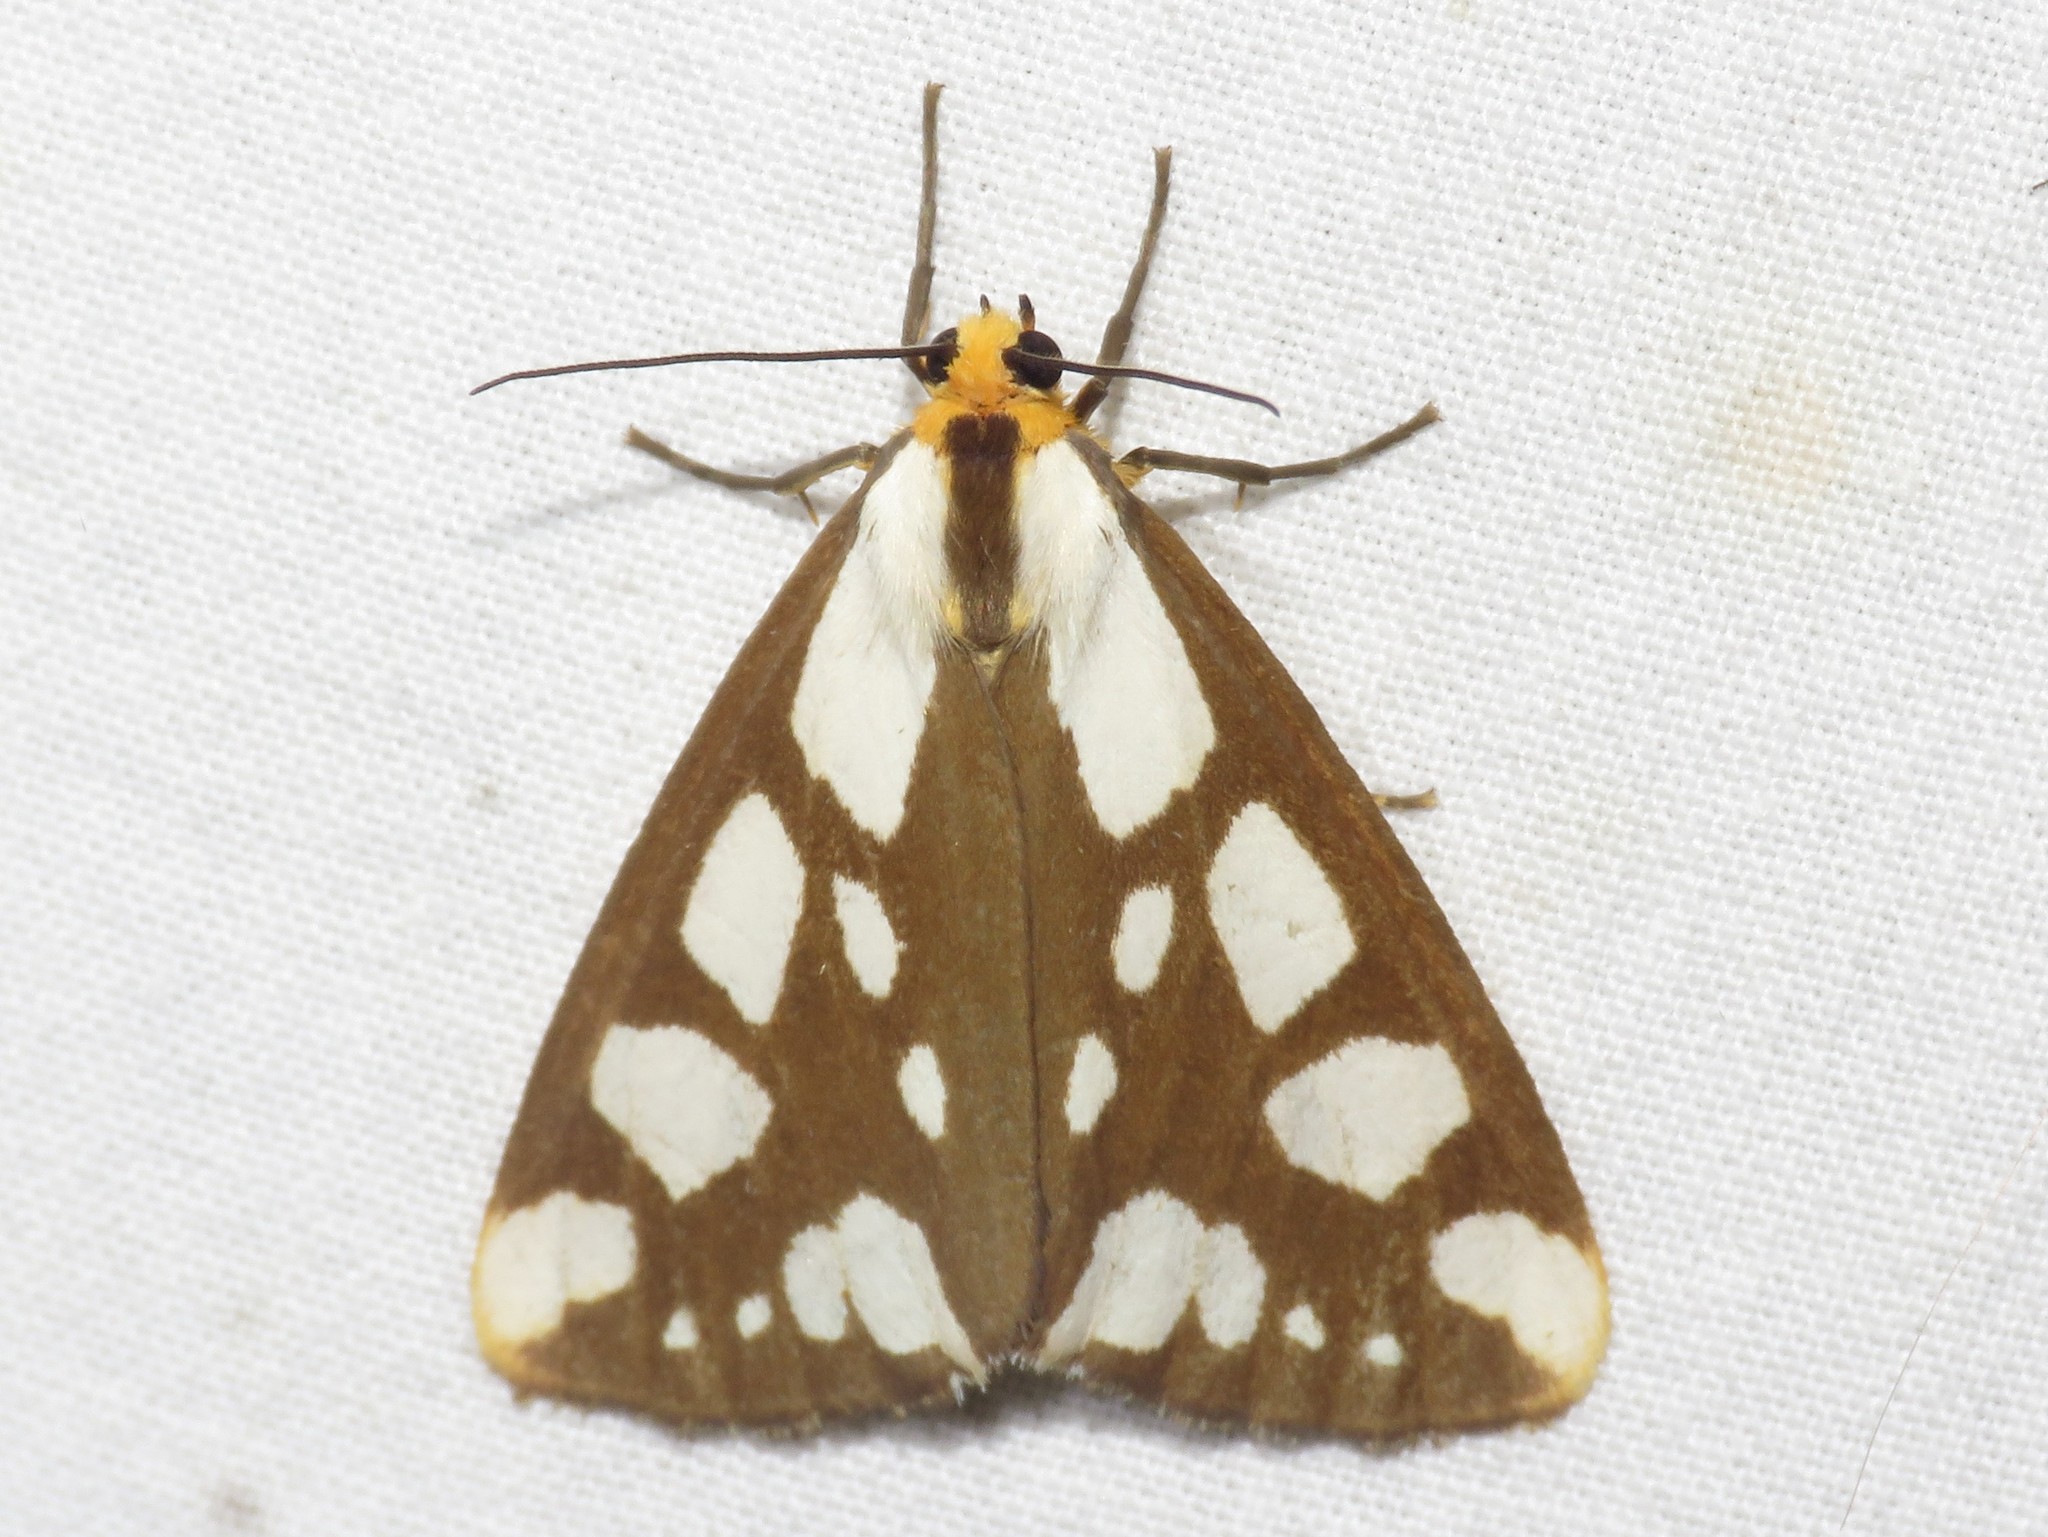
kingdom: Animalia
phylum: Arthropoda
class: Insecta
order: Lepidoptera
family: Erebidae
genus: Haploa
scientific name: Haploa confusa
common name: Confused haploa moth
